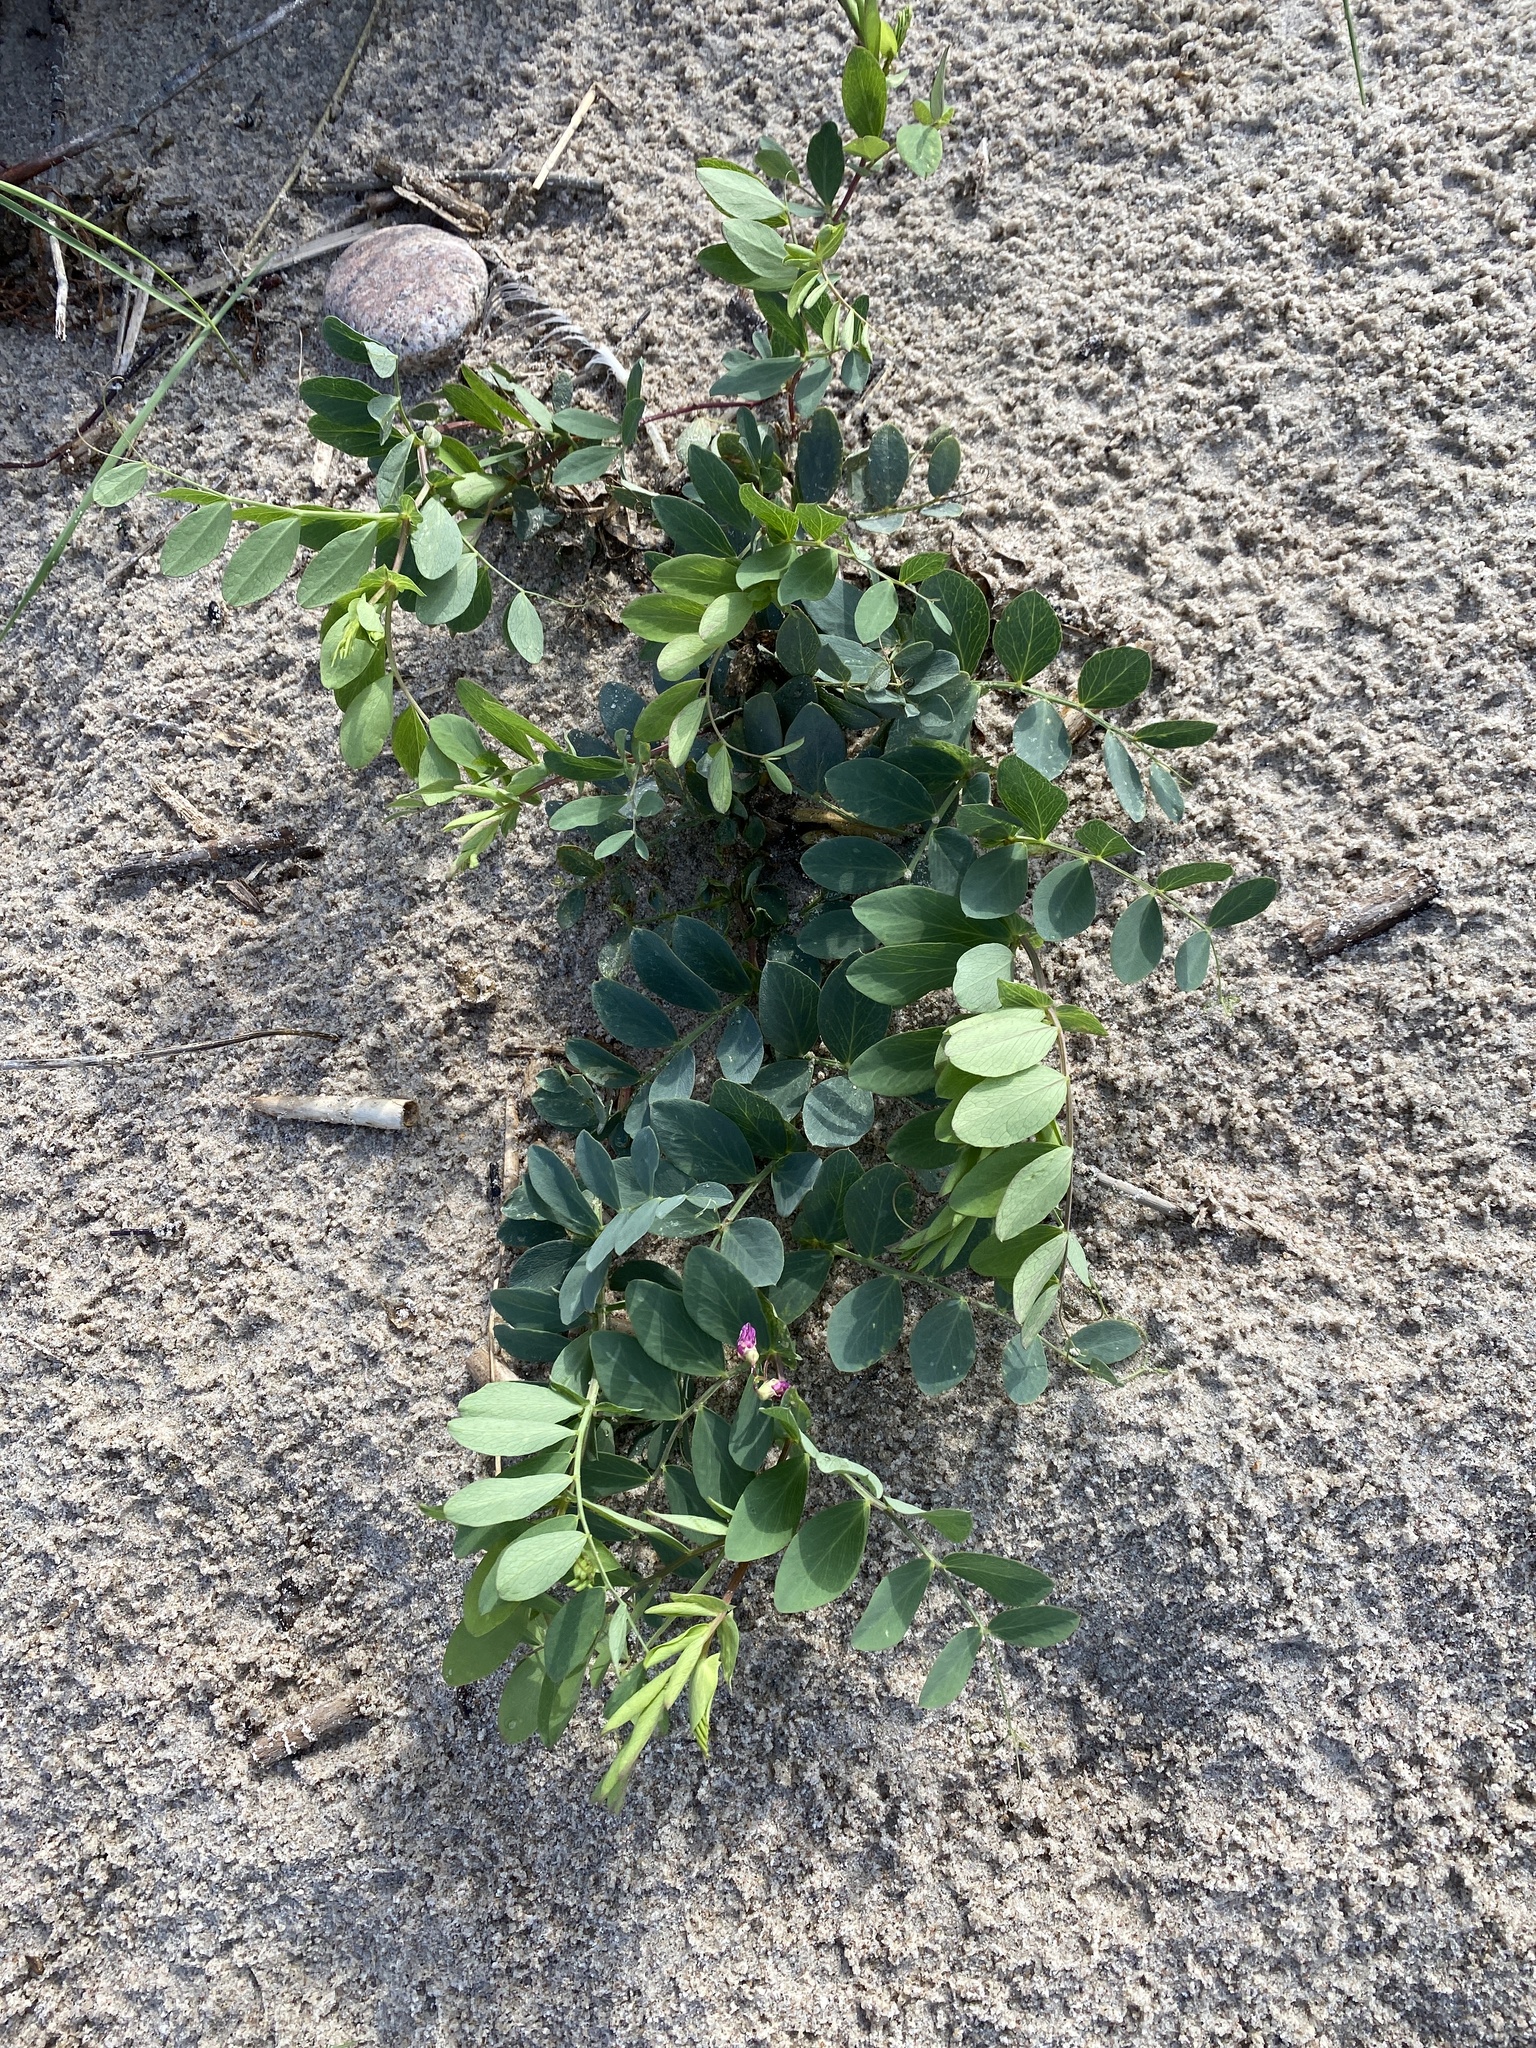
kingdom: Plantae
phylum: Tracheophyta
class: Magnoliopsida
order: Fabales
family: Fabaceae
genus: Lathyrus
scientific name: Lathyrus japonicus
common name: Sea pea
